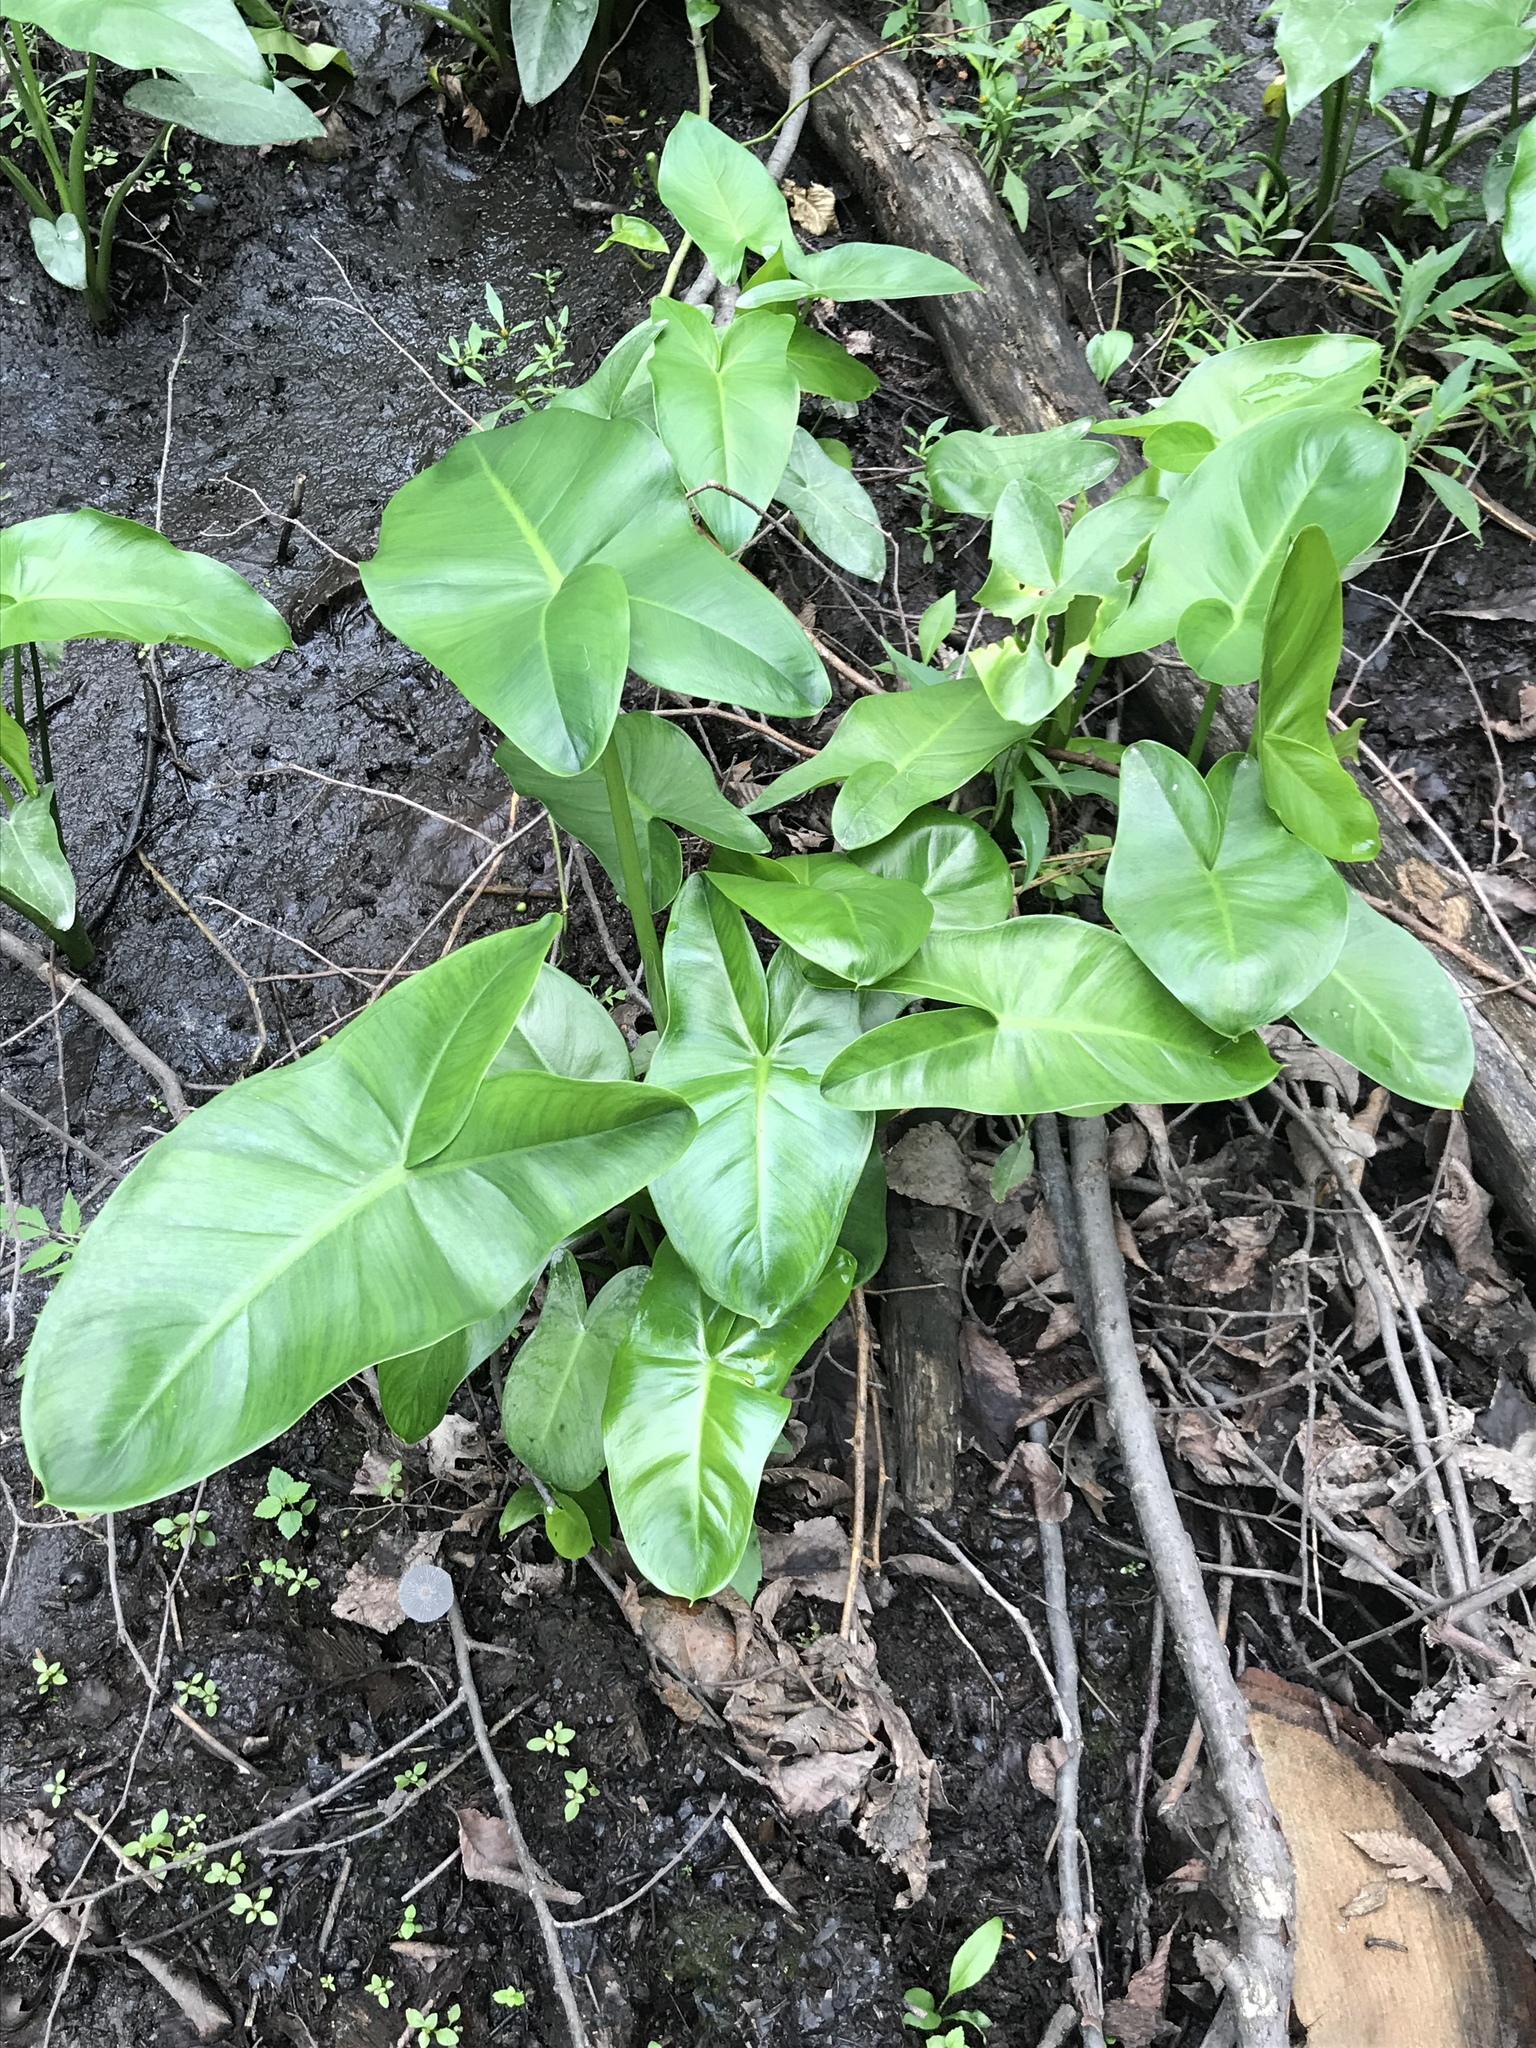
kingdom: Plantae
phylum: Tracheophyta
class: Liliopsida
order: Alismatales
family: Araceae
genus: Peltandra
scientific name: Peltandra virginica
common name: Arrow arum
